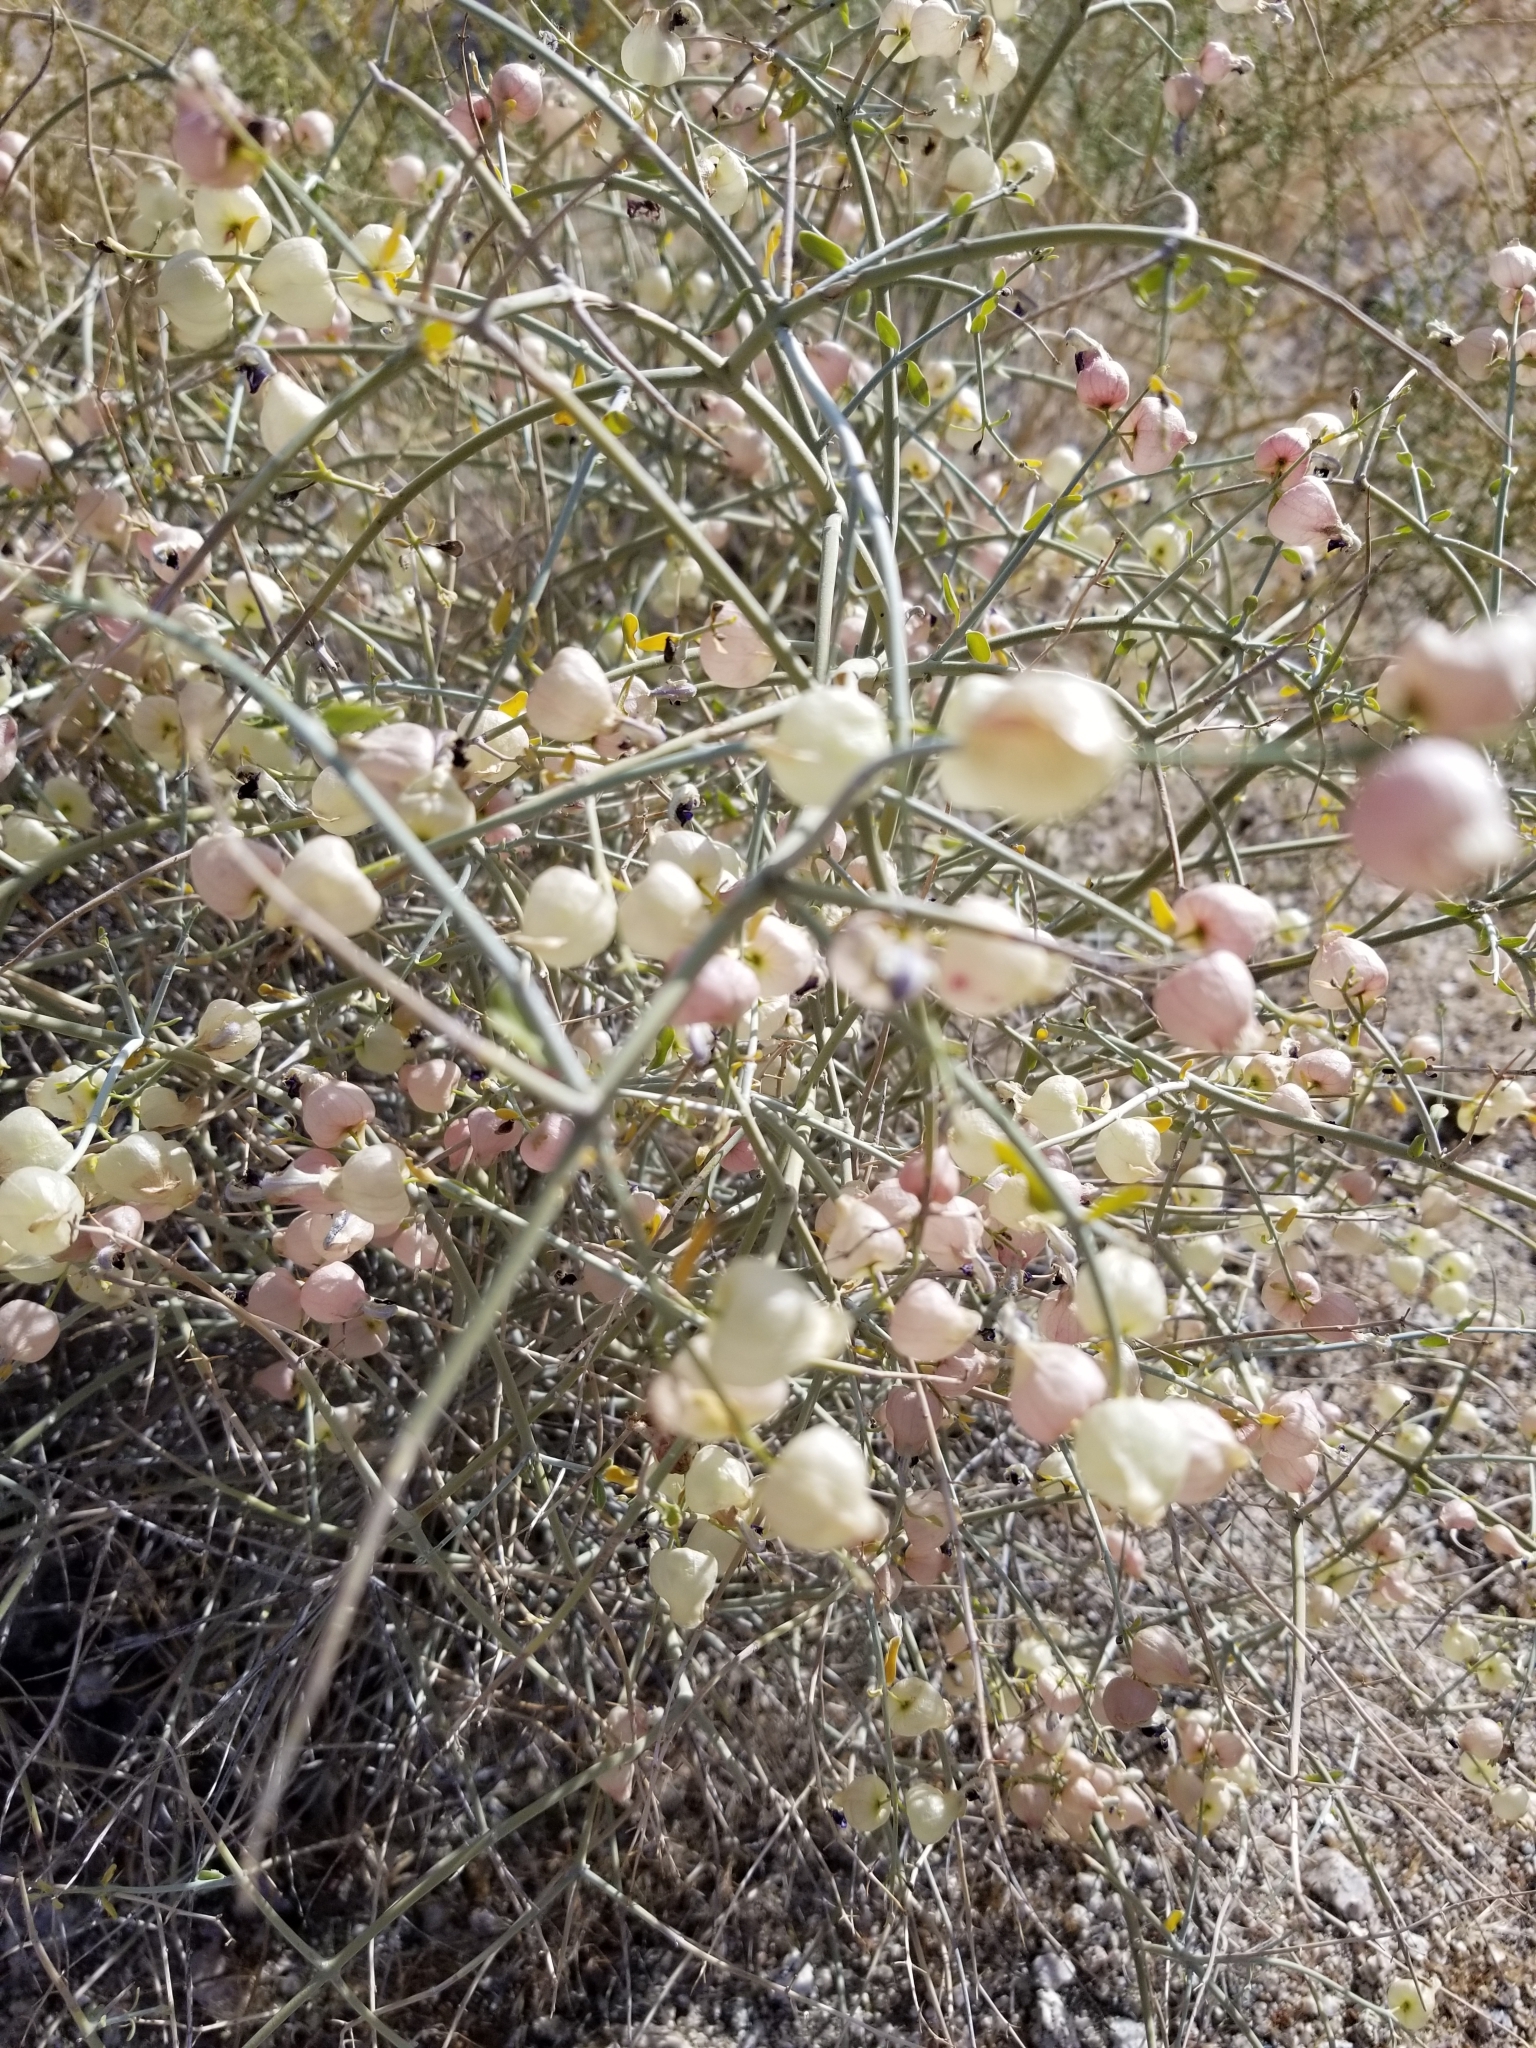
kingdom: Plantae
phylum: Tracheophyta
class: Magnoliopsida
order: Lamiales
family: Lamiaceae
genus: Scutellaria
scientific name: Scutellaria mexicana
